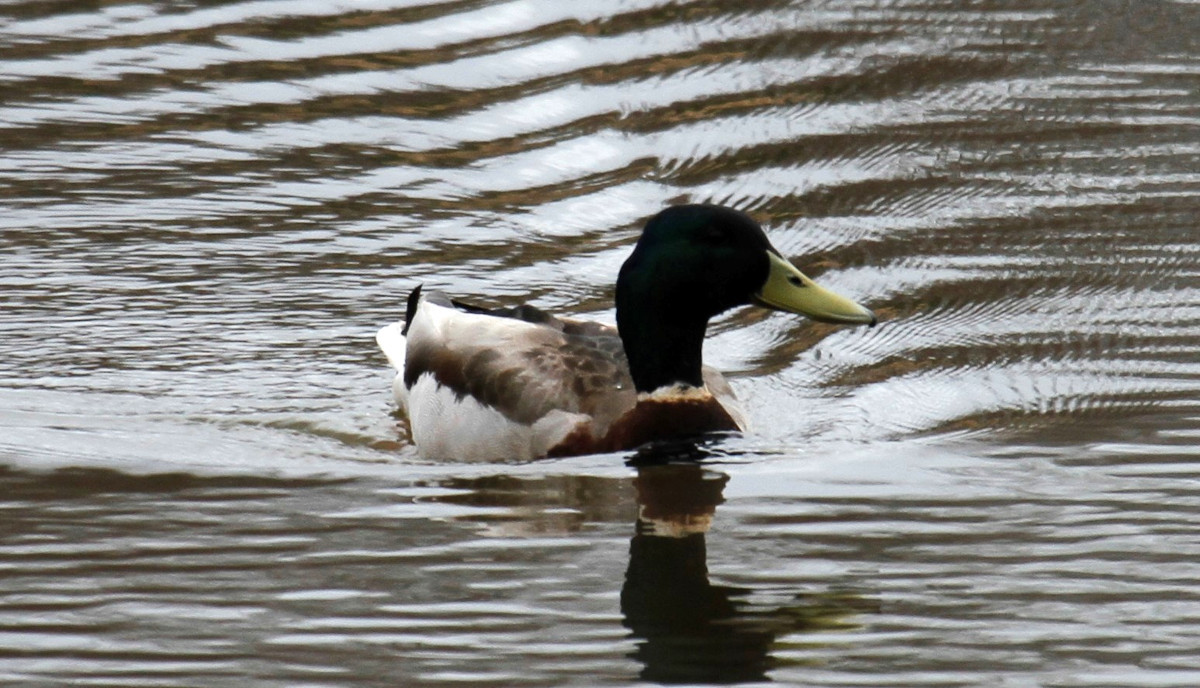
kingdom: Animalia
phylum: Chordata
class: Aves
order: Anseriformes
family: Anatidae
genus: Anas
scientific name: Anas platyrhynchos
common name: Mallard
